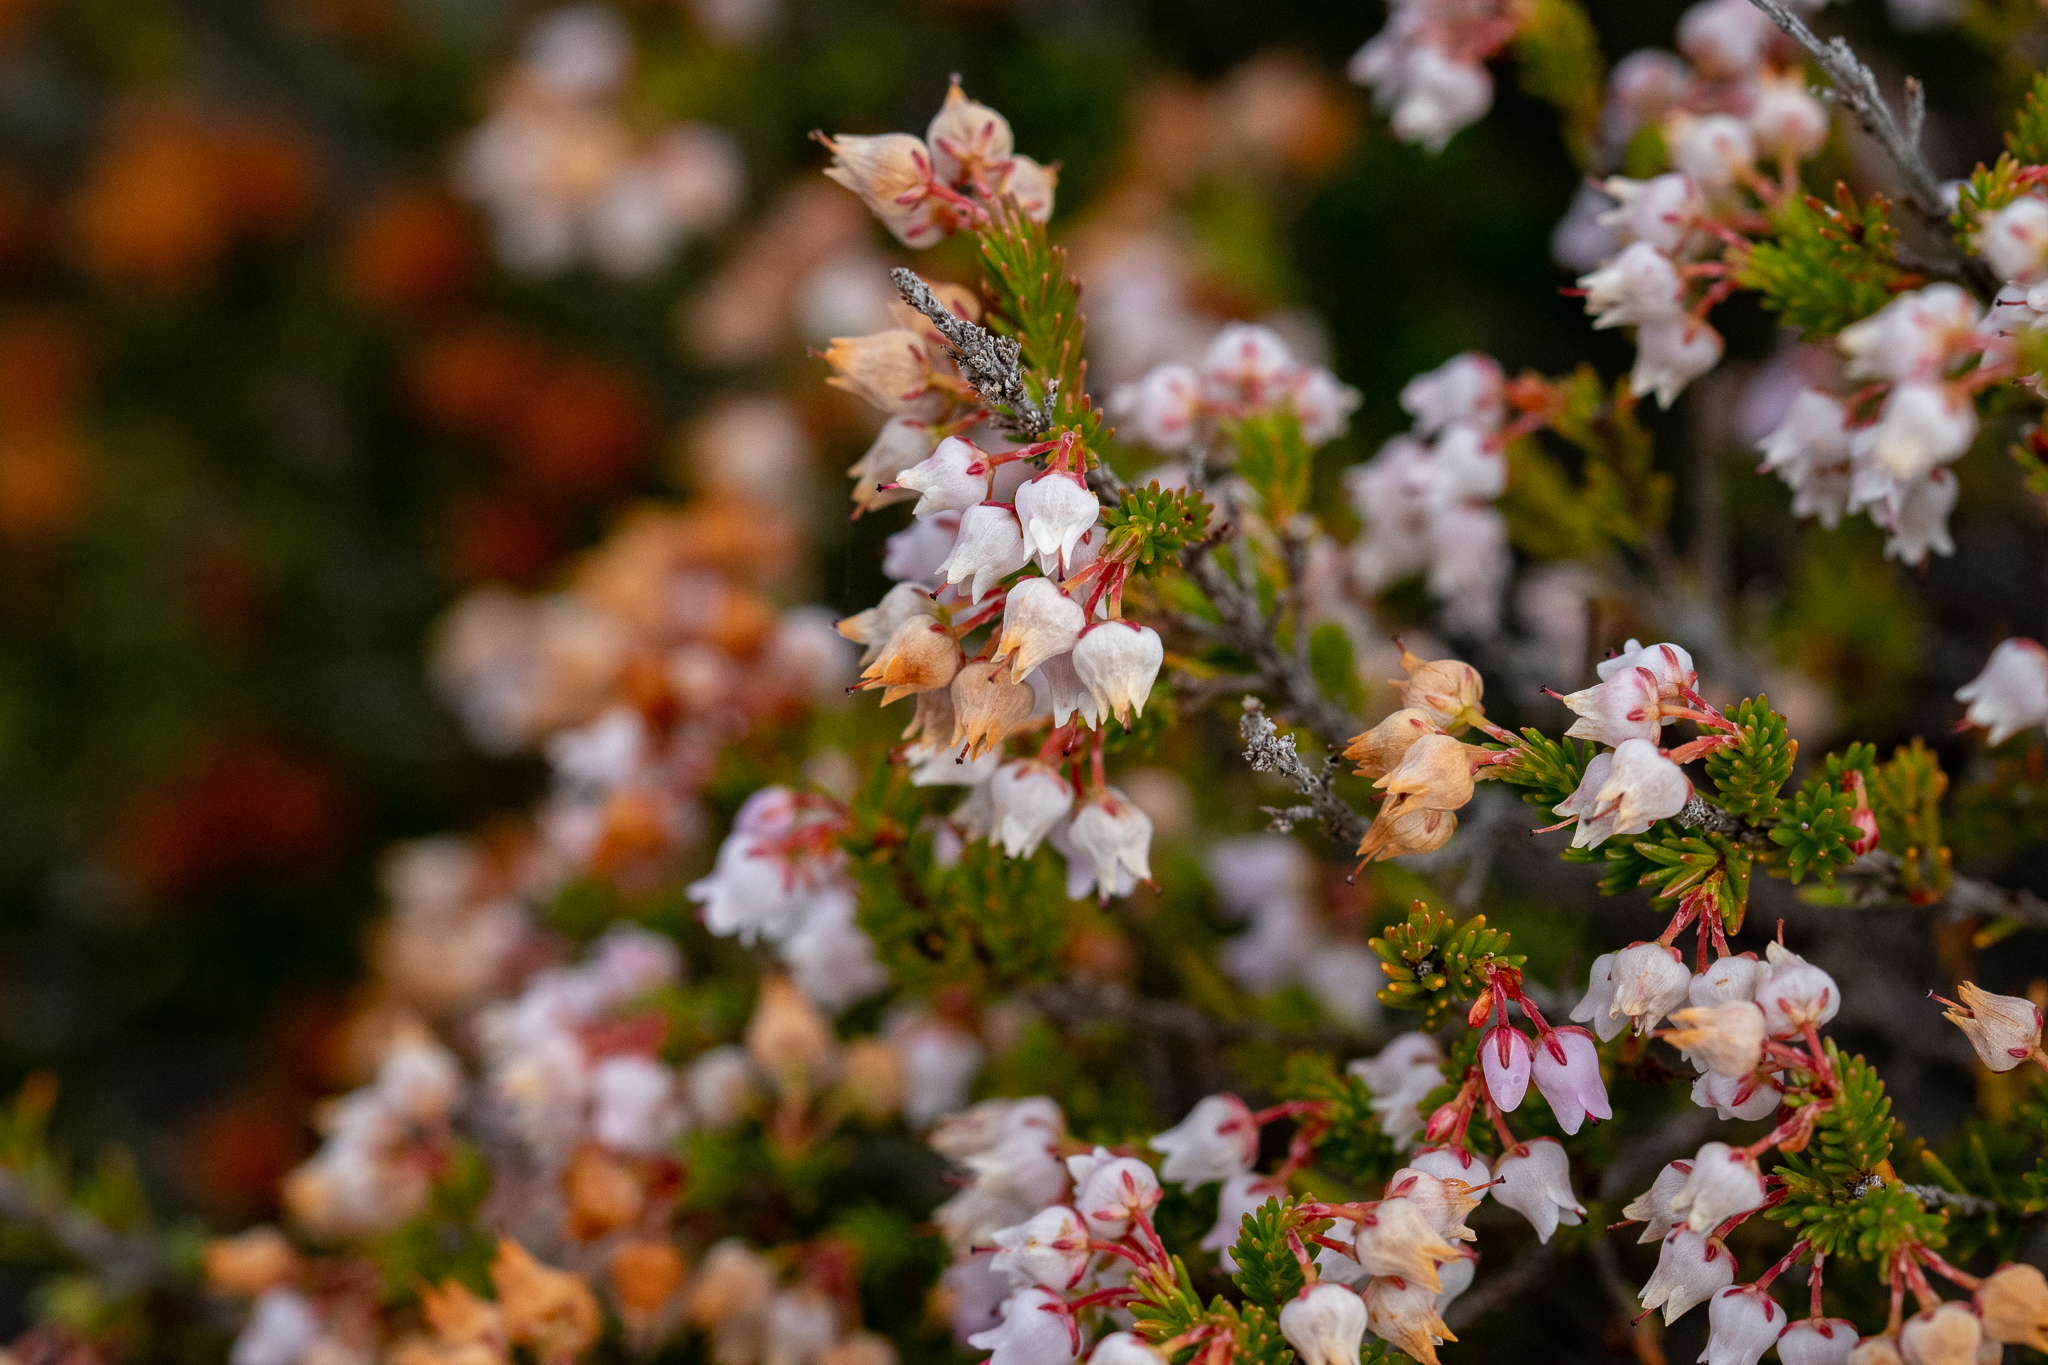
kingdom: Plantae
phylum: Tracheophyta
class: Magnoliopsida
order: Ericales
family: Ericaceae
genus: Erica
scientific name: Erica curvirostris
